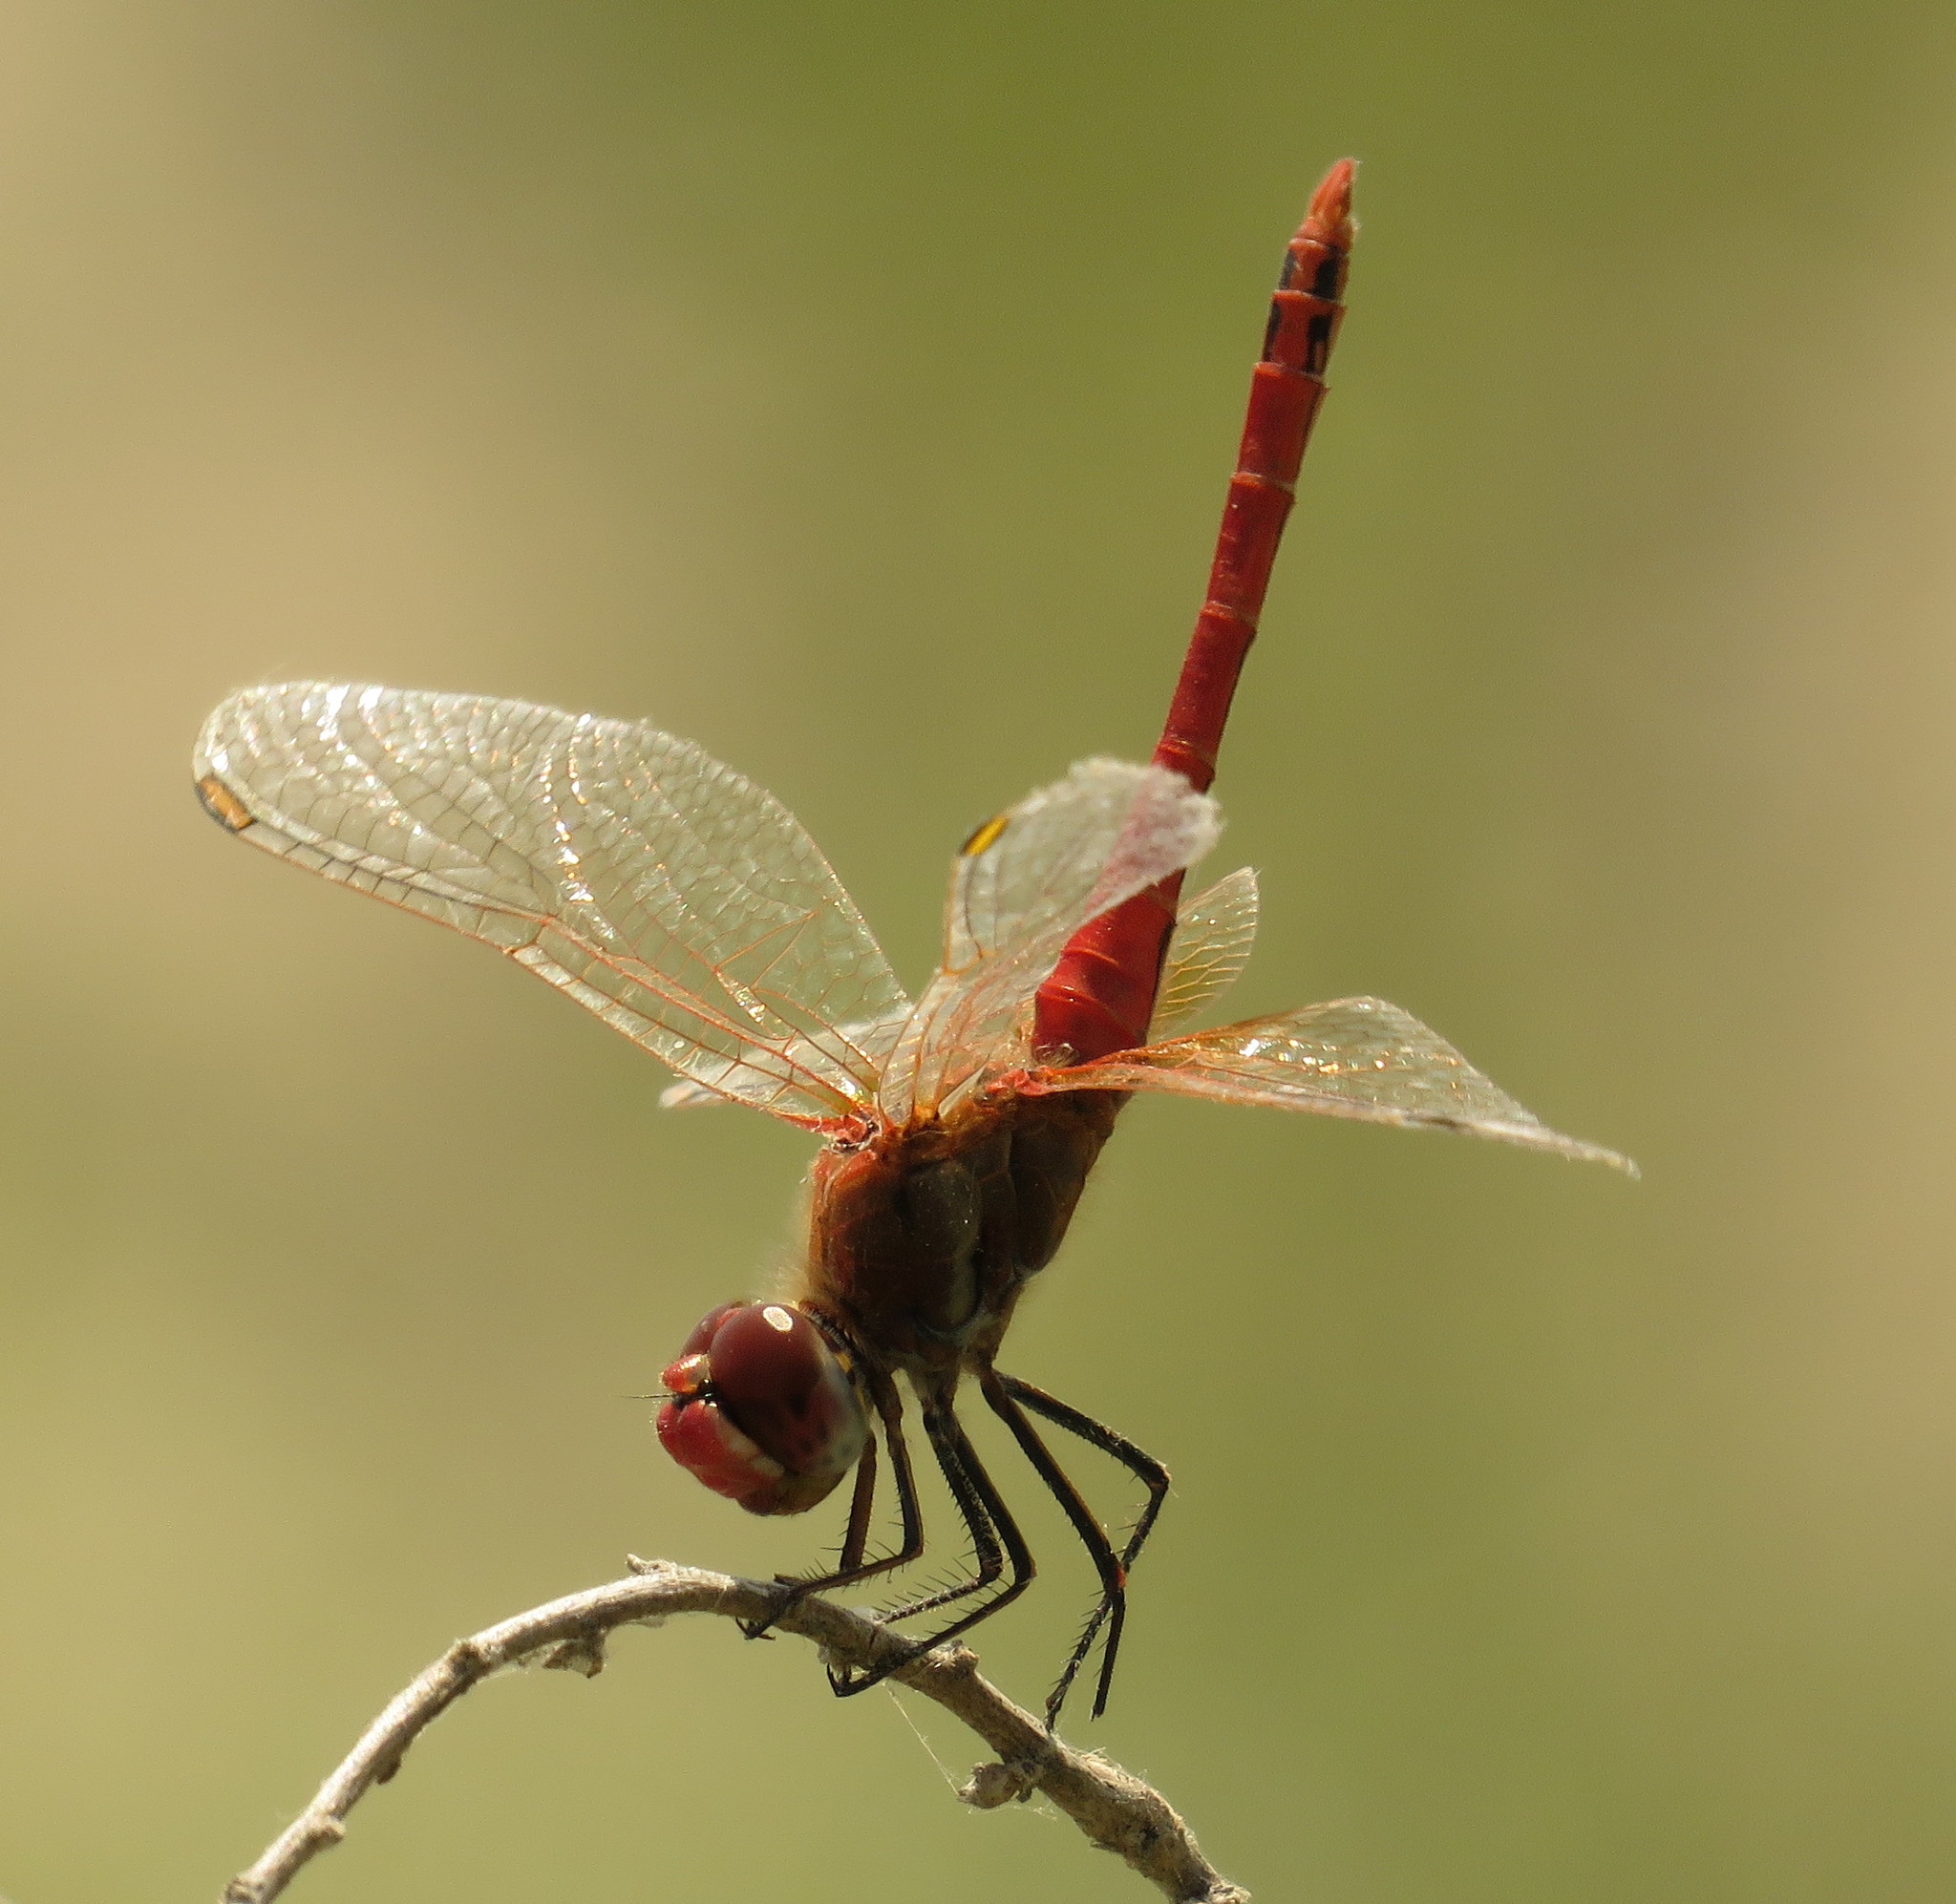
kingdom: Animalia
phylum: Arthropoda
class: Insecta
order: Odonata
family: Libellulidae
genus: Sympetrum
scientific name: Sympetrum fonscolombii
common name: Red-veined darter
